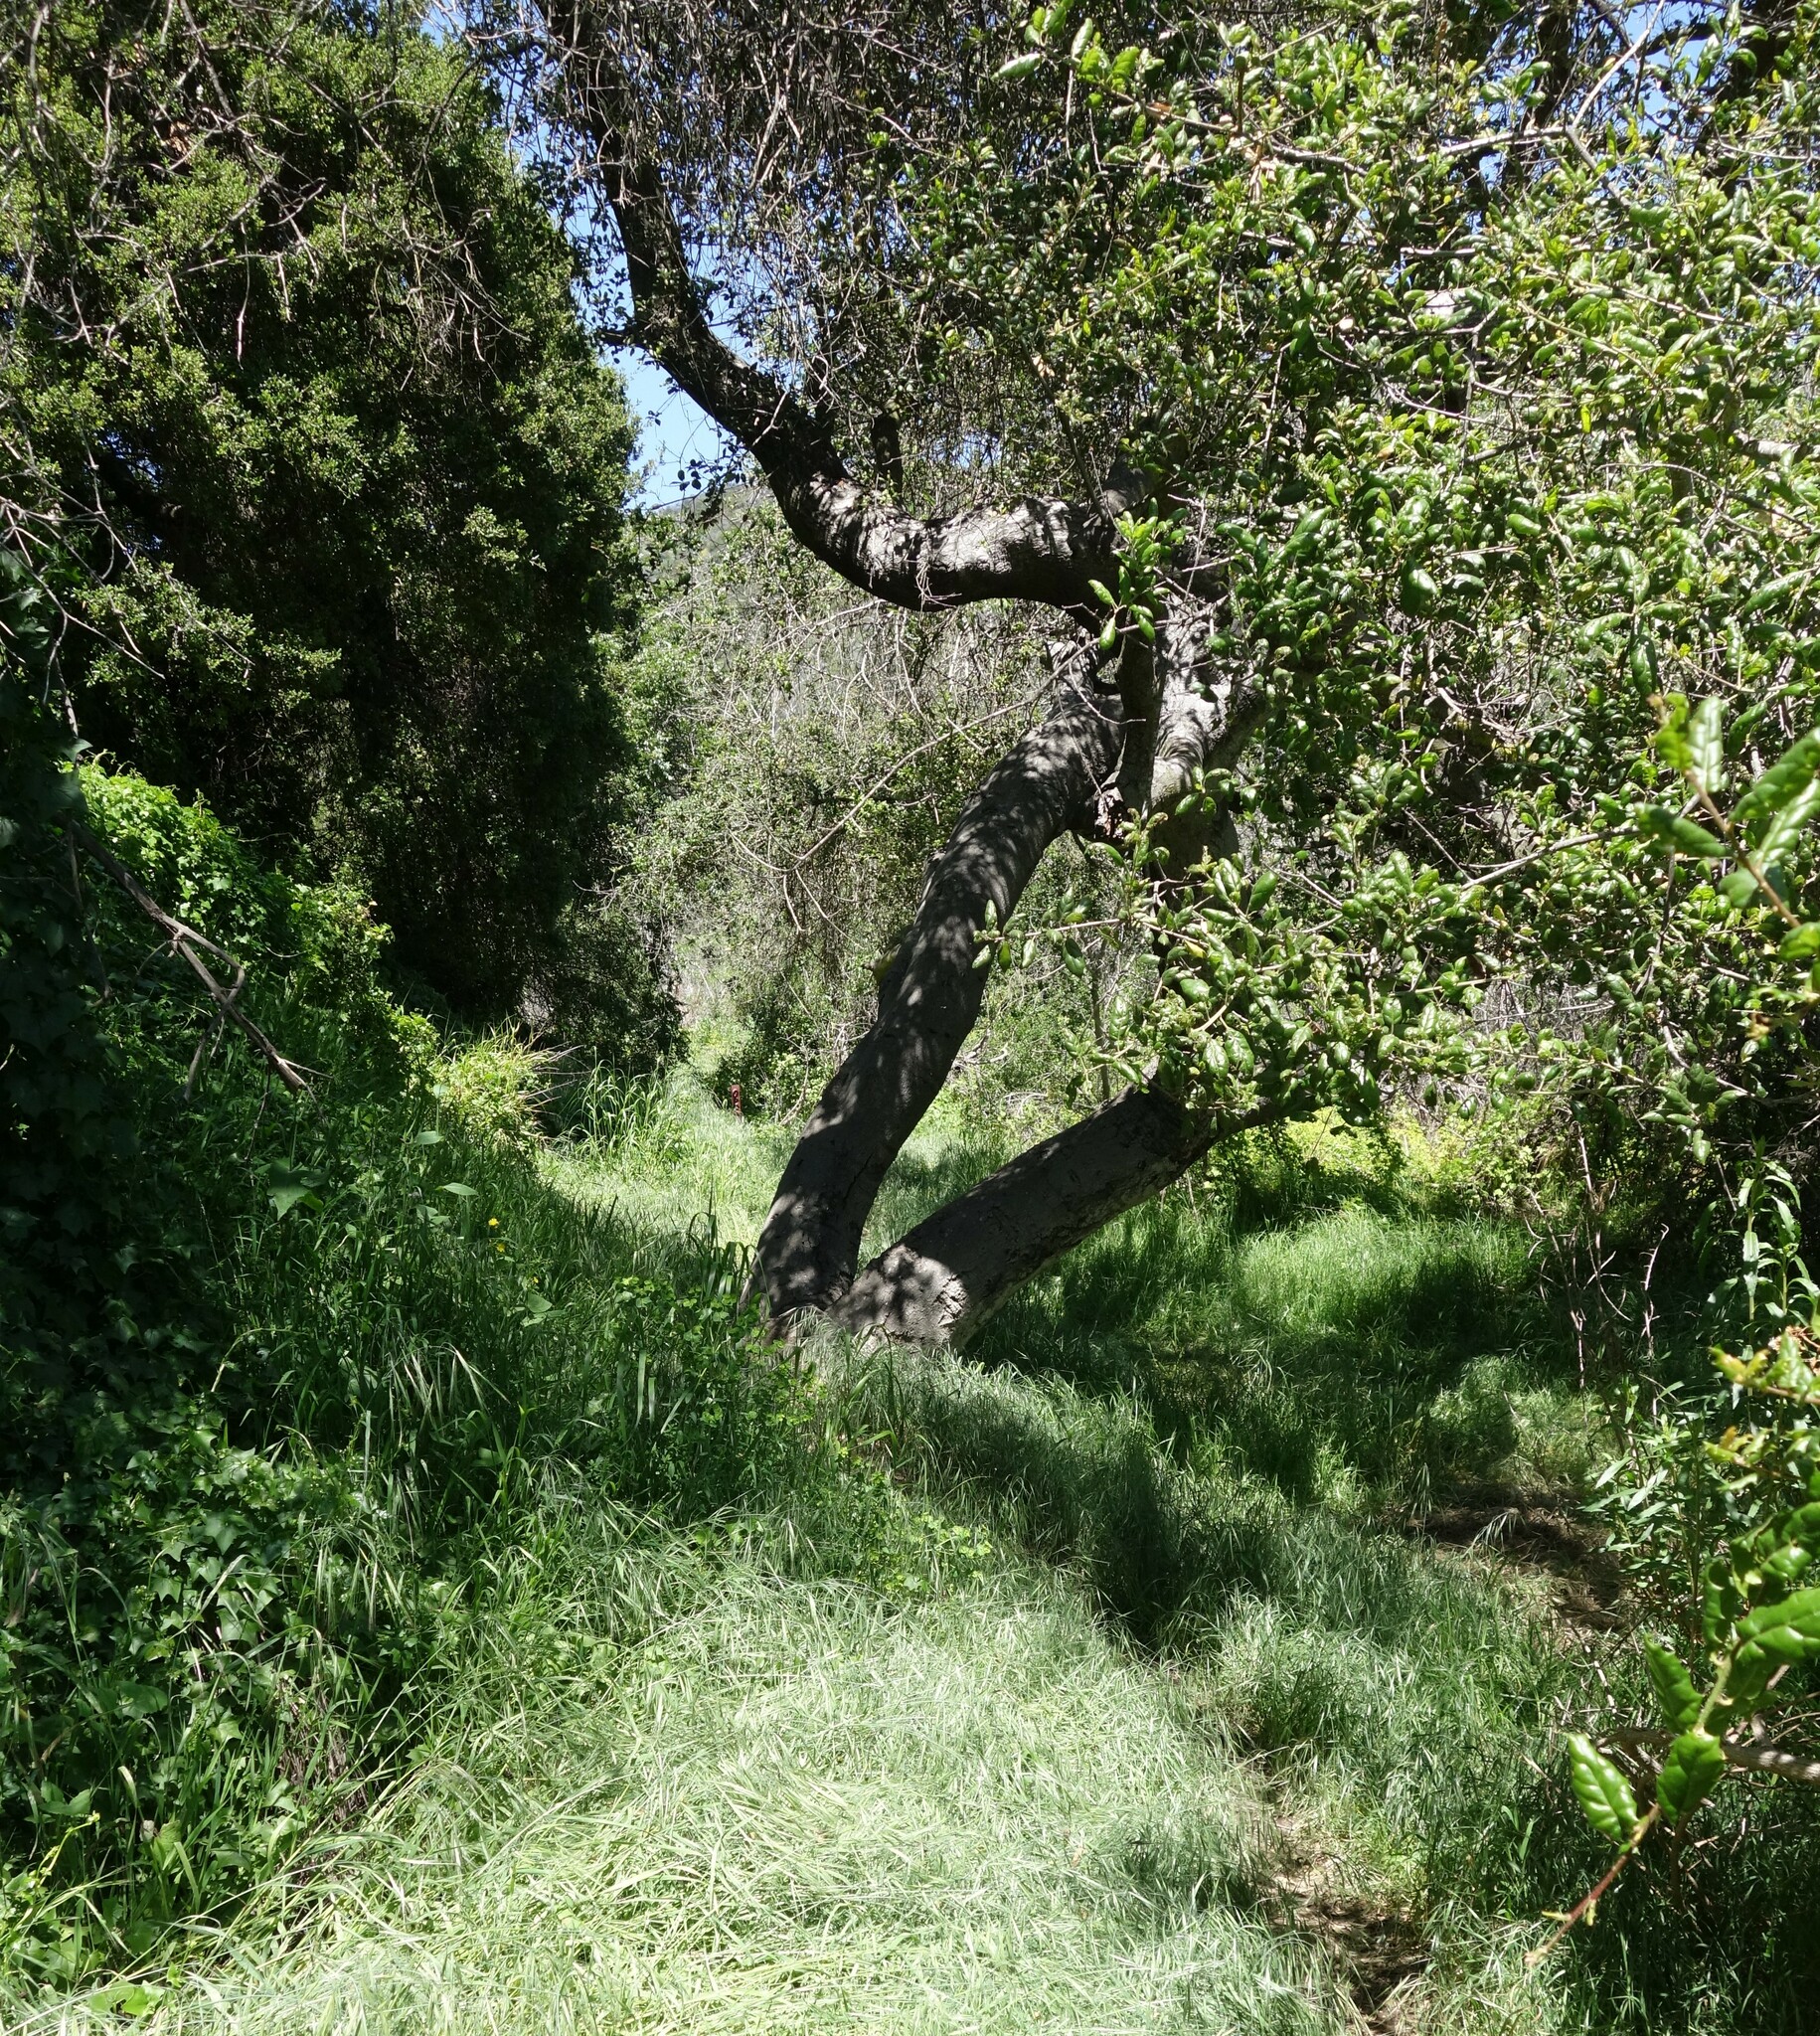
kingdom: Plantae
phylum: Tracheophyta
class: Magnoliopsida
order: Fagales
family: Fagaceae
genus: Quercus
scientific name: Quercus agrifolia
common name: California live oak
